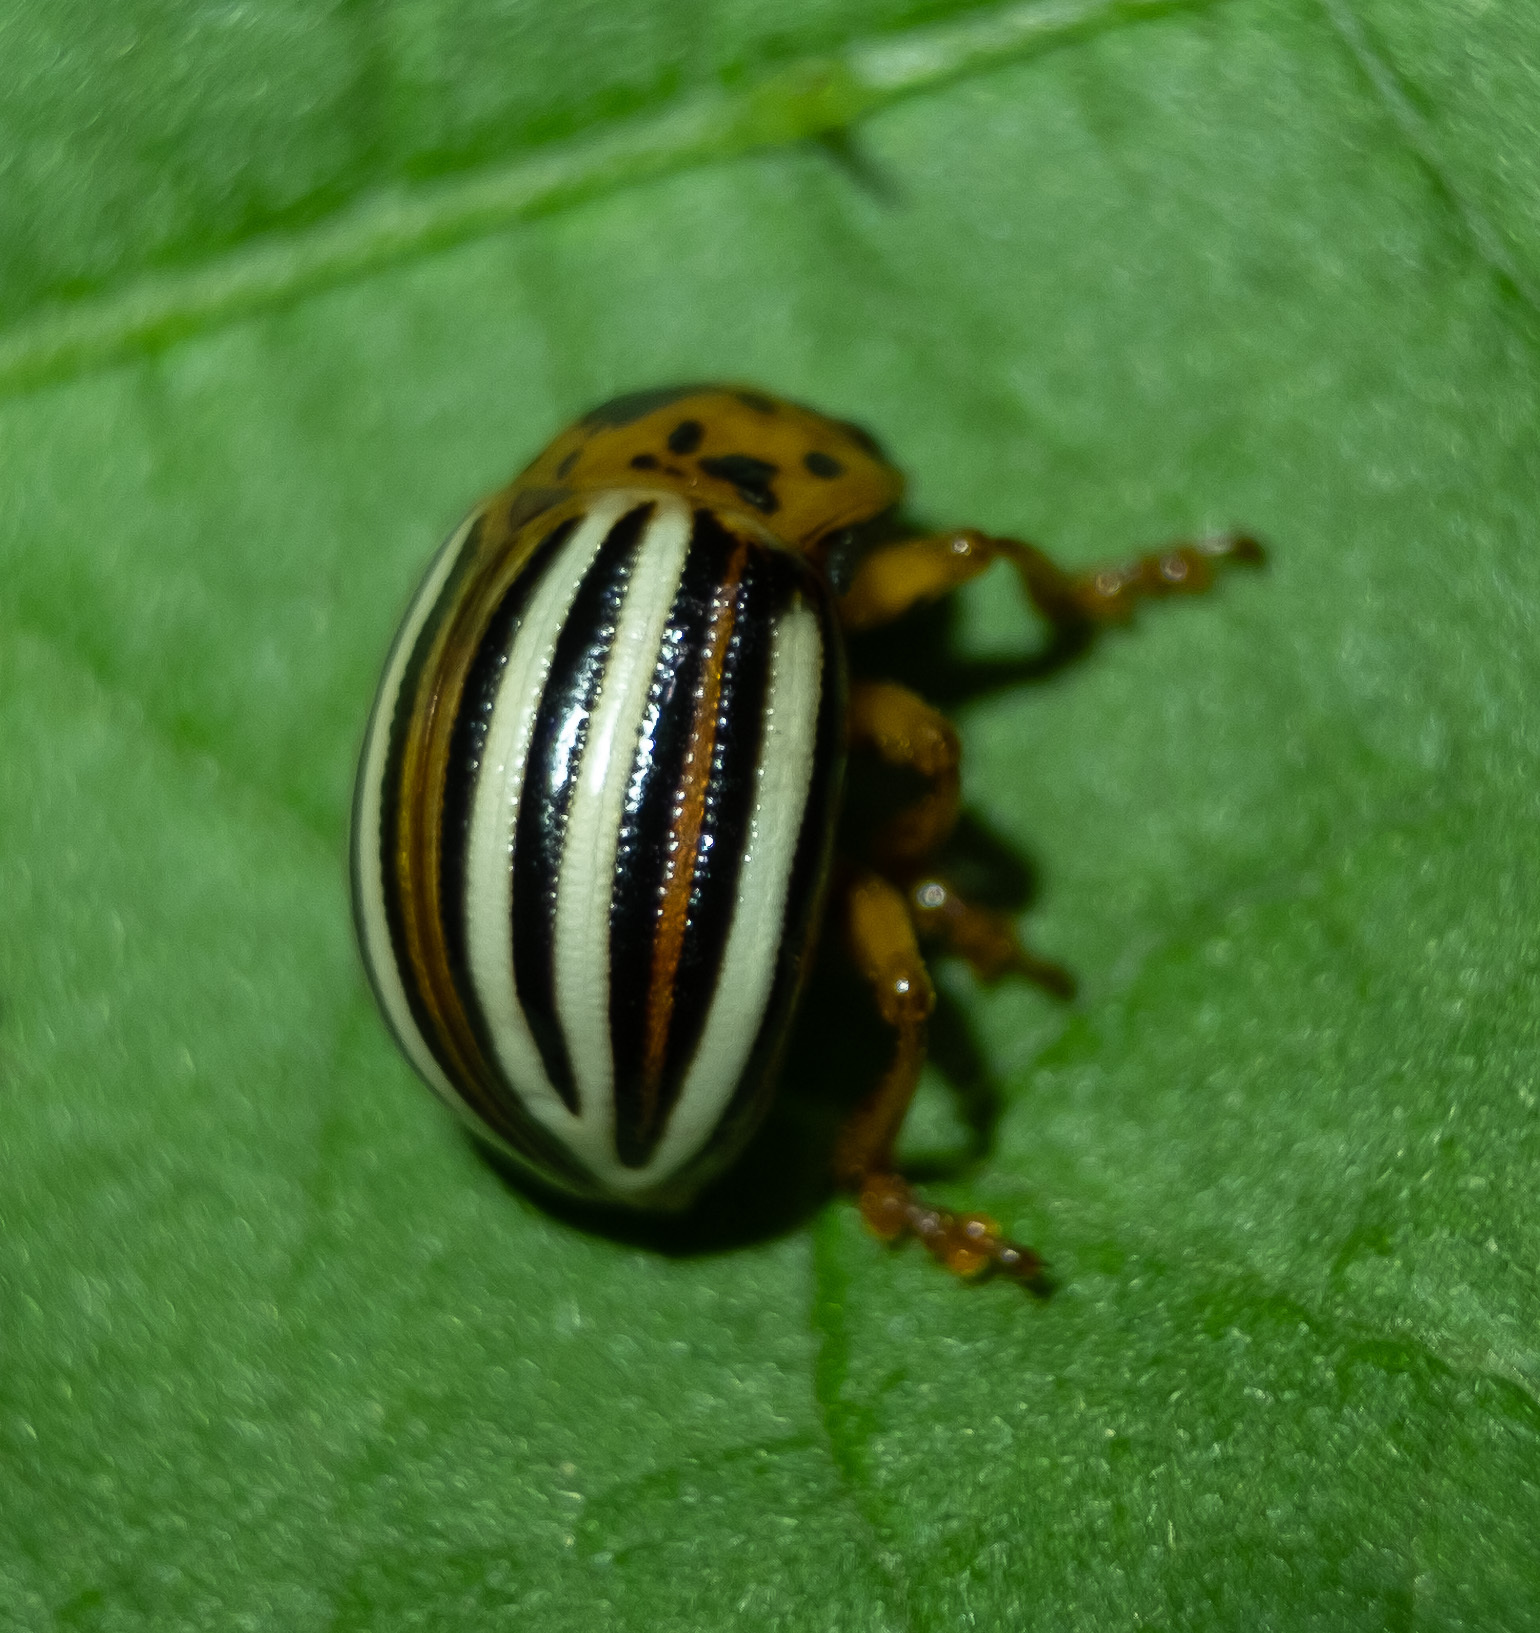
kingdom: Animalia
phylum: Arthropoda
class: Insecta
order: Coleoptera
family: Chrysomelidae
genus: Leptinotarsa
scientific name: Leptinotarsa juncta
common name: False potato beetle
